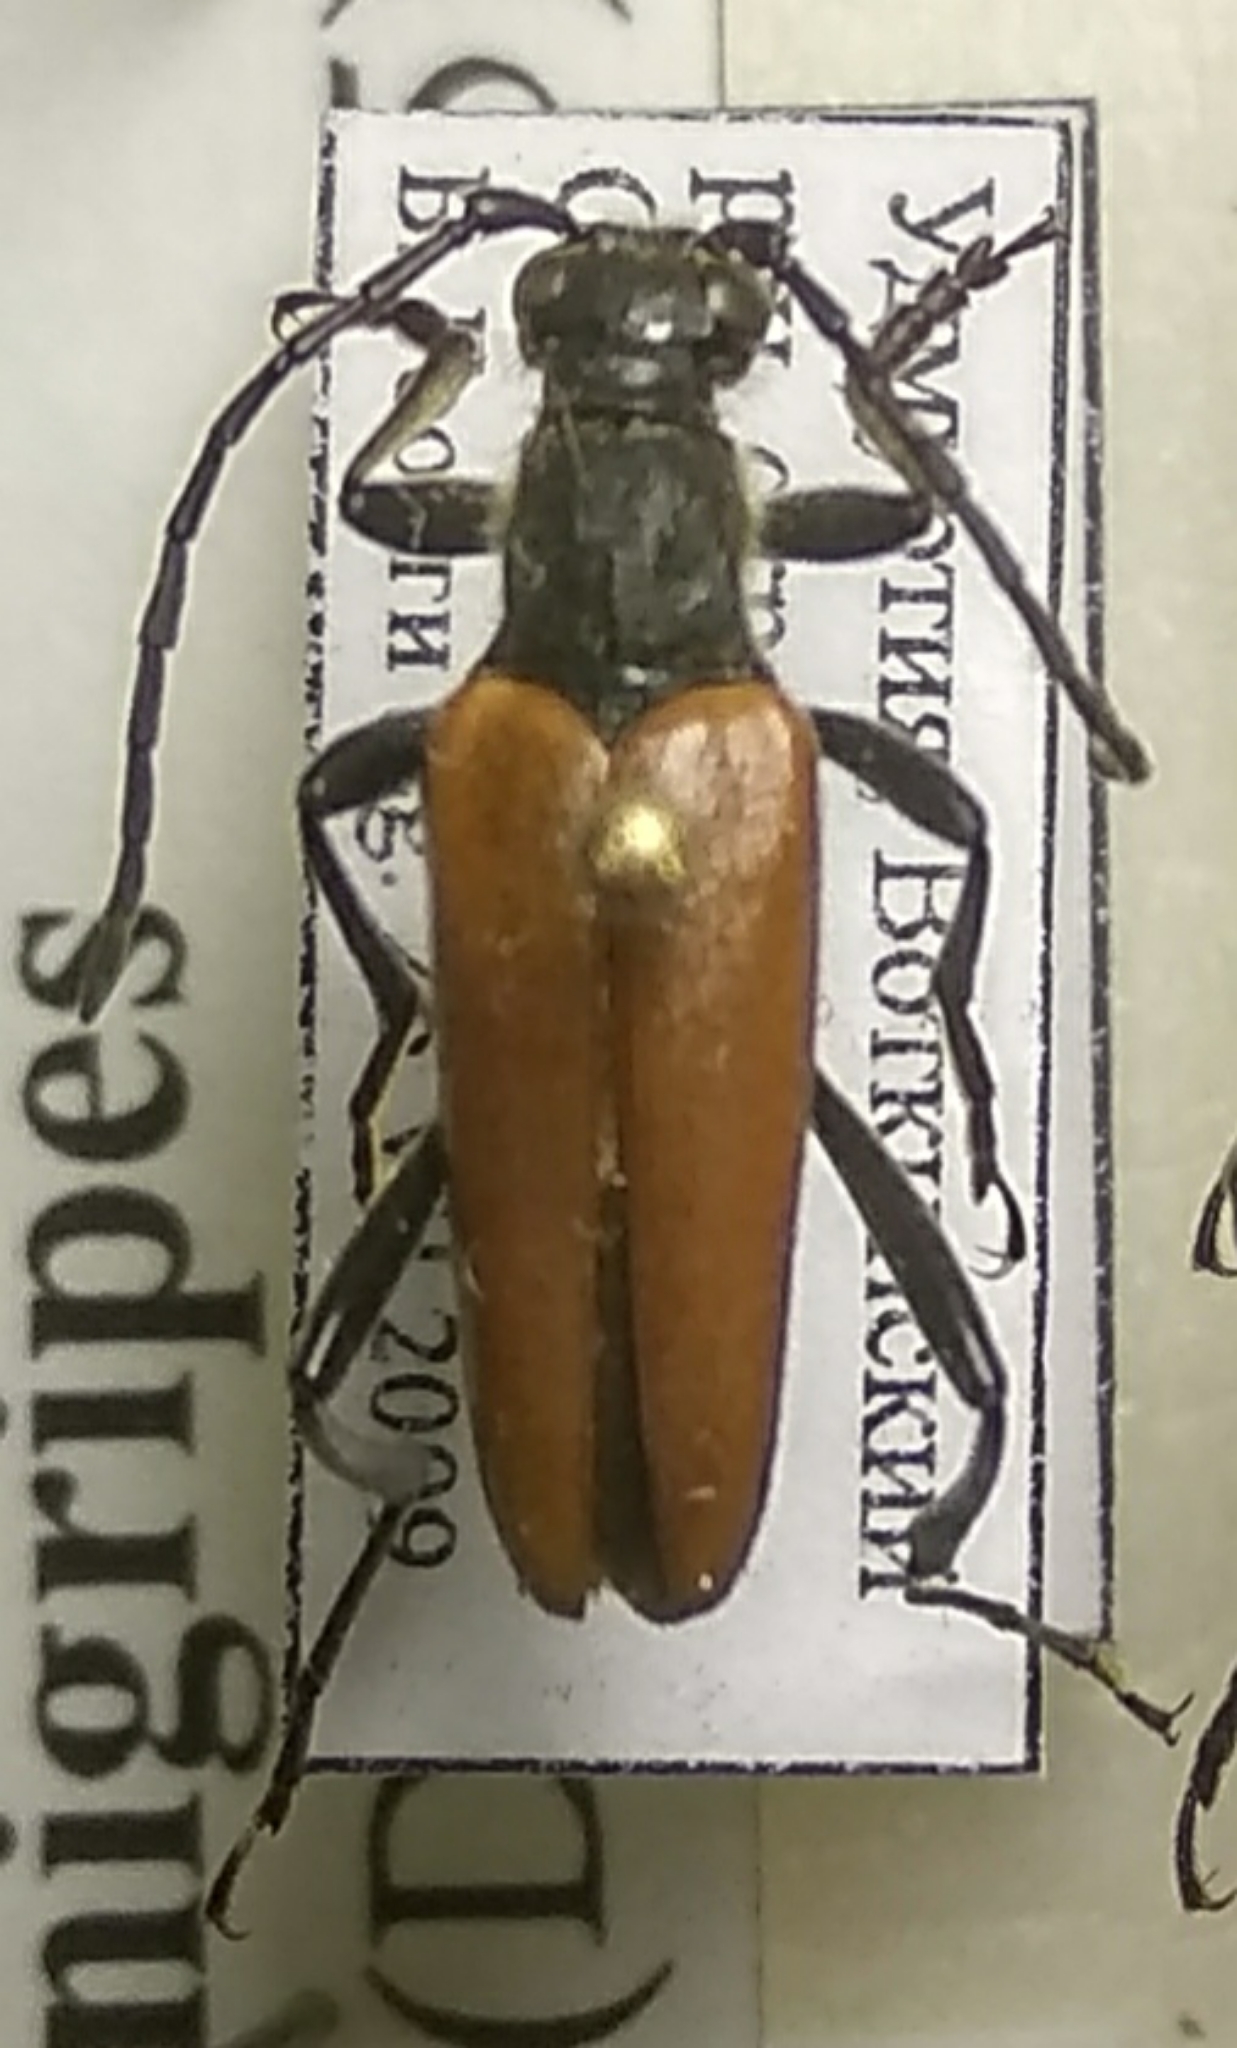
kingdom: Animalia
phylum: Arthropoda
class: Insecta
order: Coleoptera
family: Cerambycidae
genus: Lepturalia
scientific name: Lepturalia nigripes
